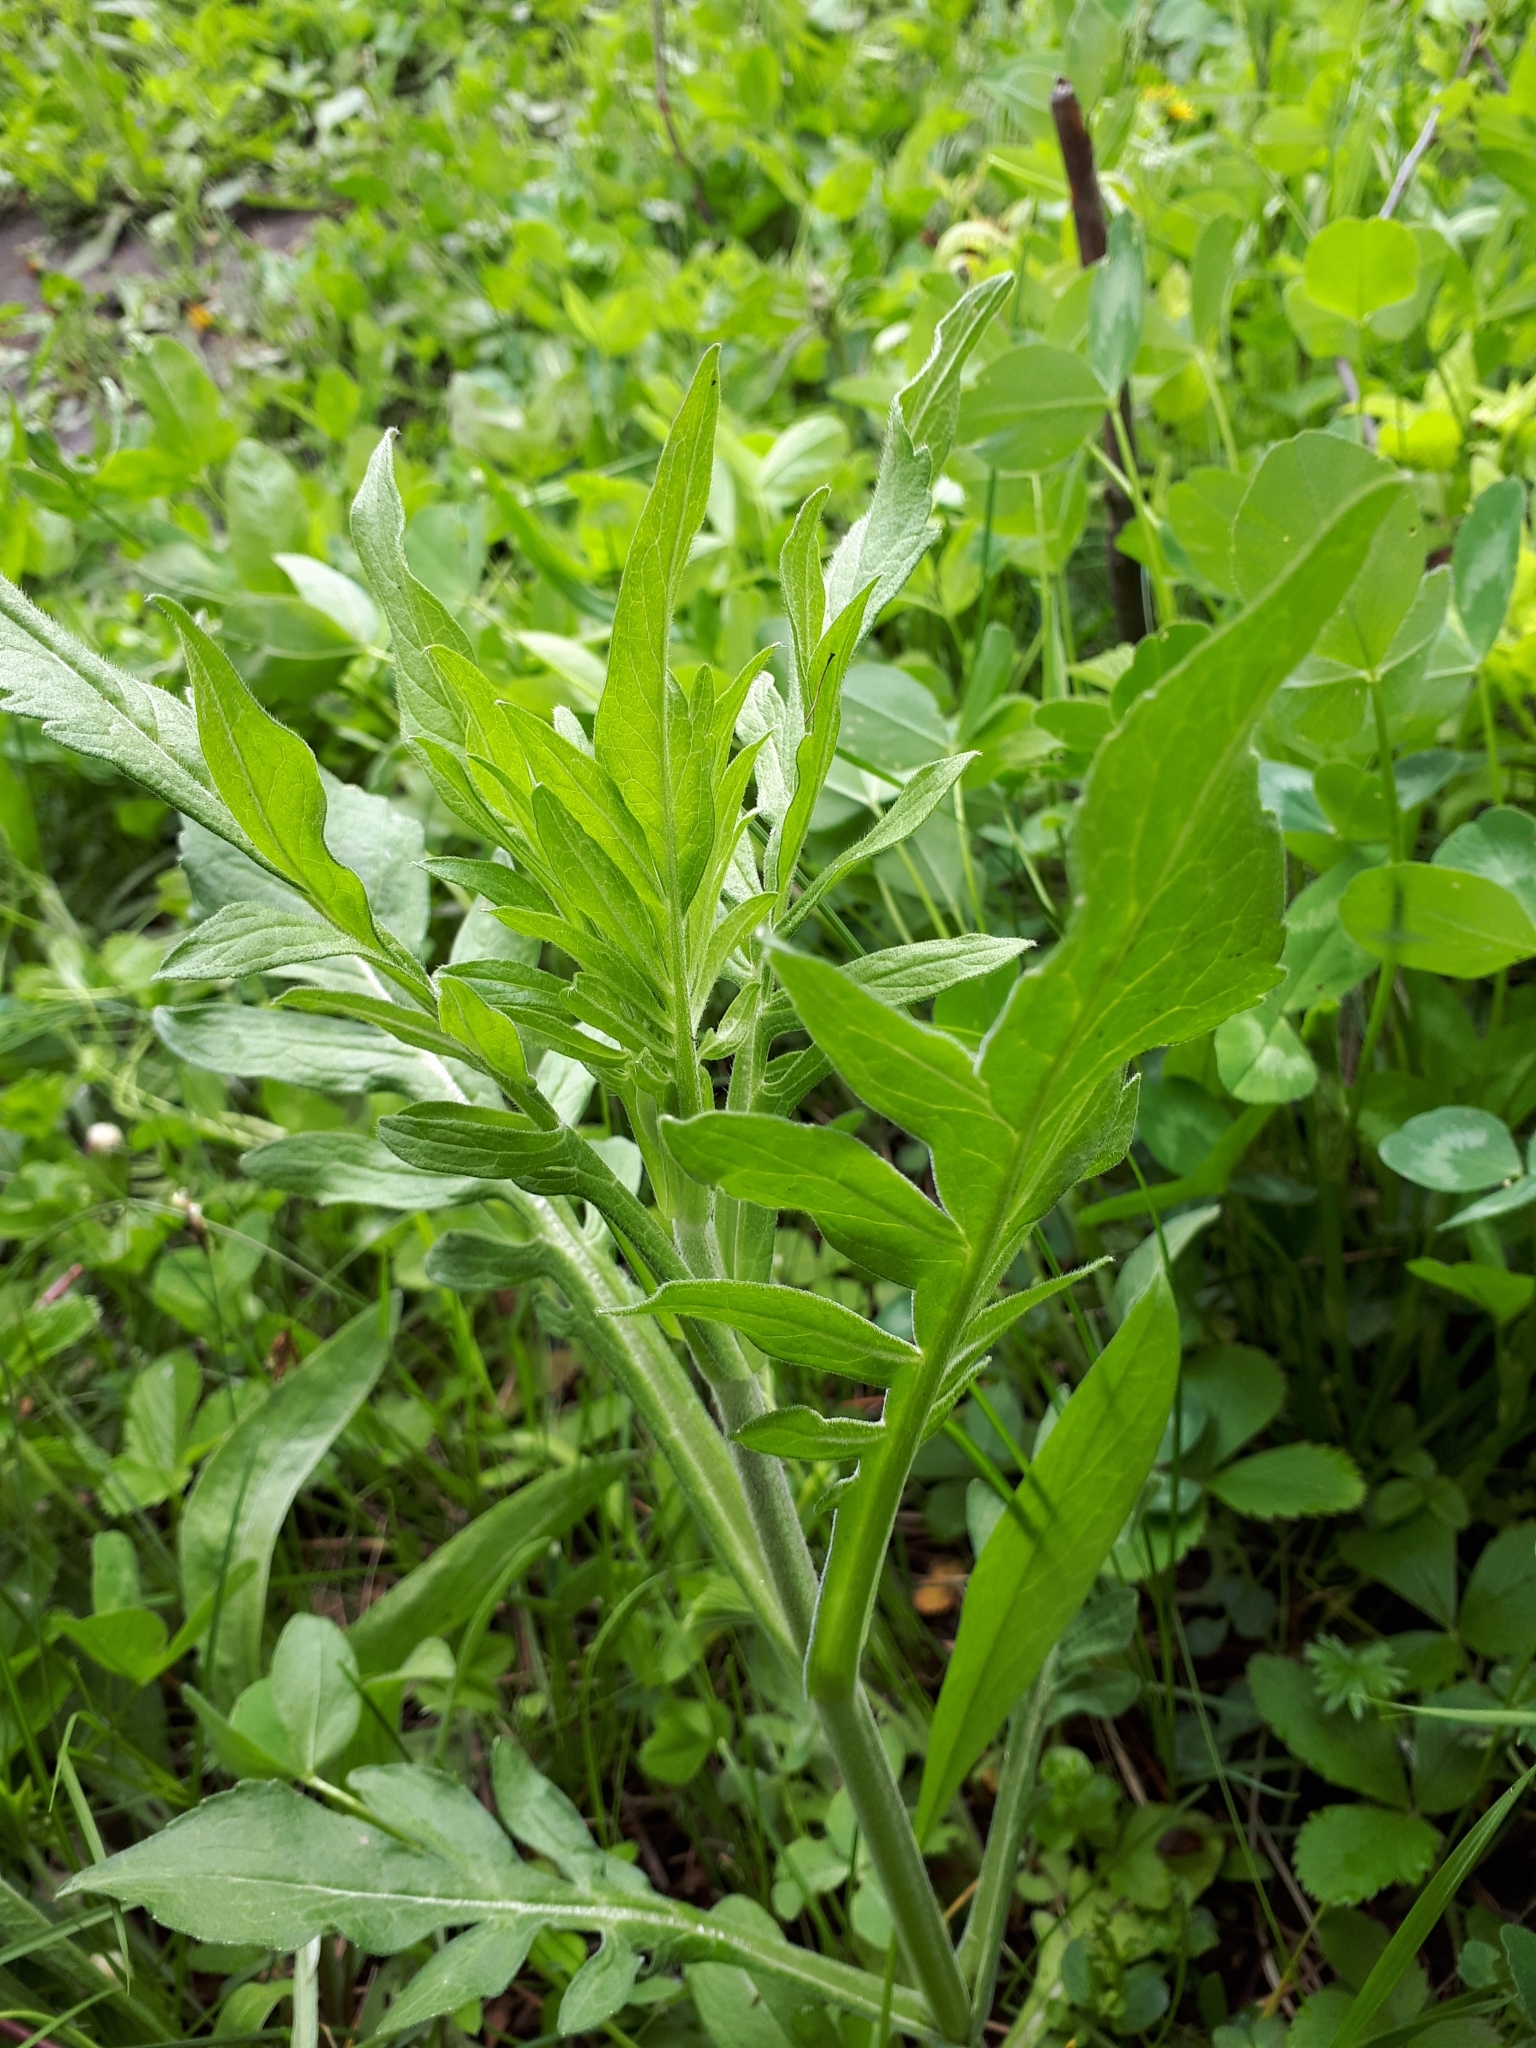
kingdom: Plantae
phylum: Tracheophyta
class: Magnoliopsida
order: Dipsacales
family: Caprifoliaceae
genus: Knautia
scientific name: Knautia arvensis
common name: Field scabiosa
